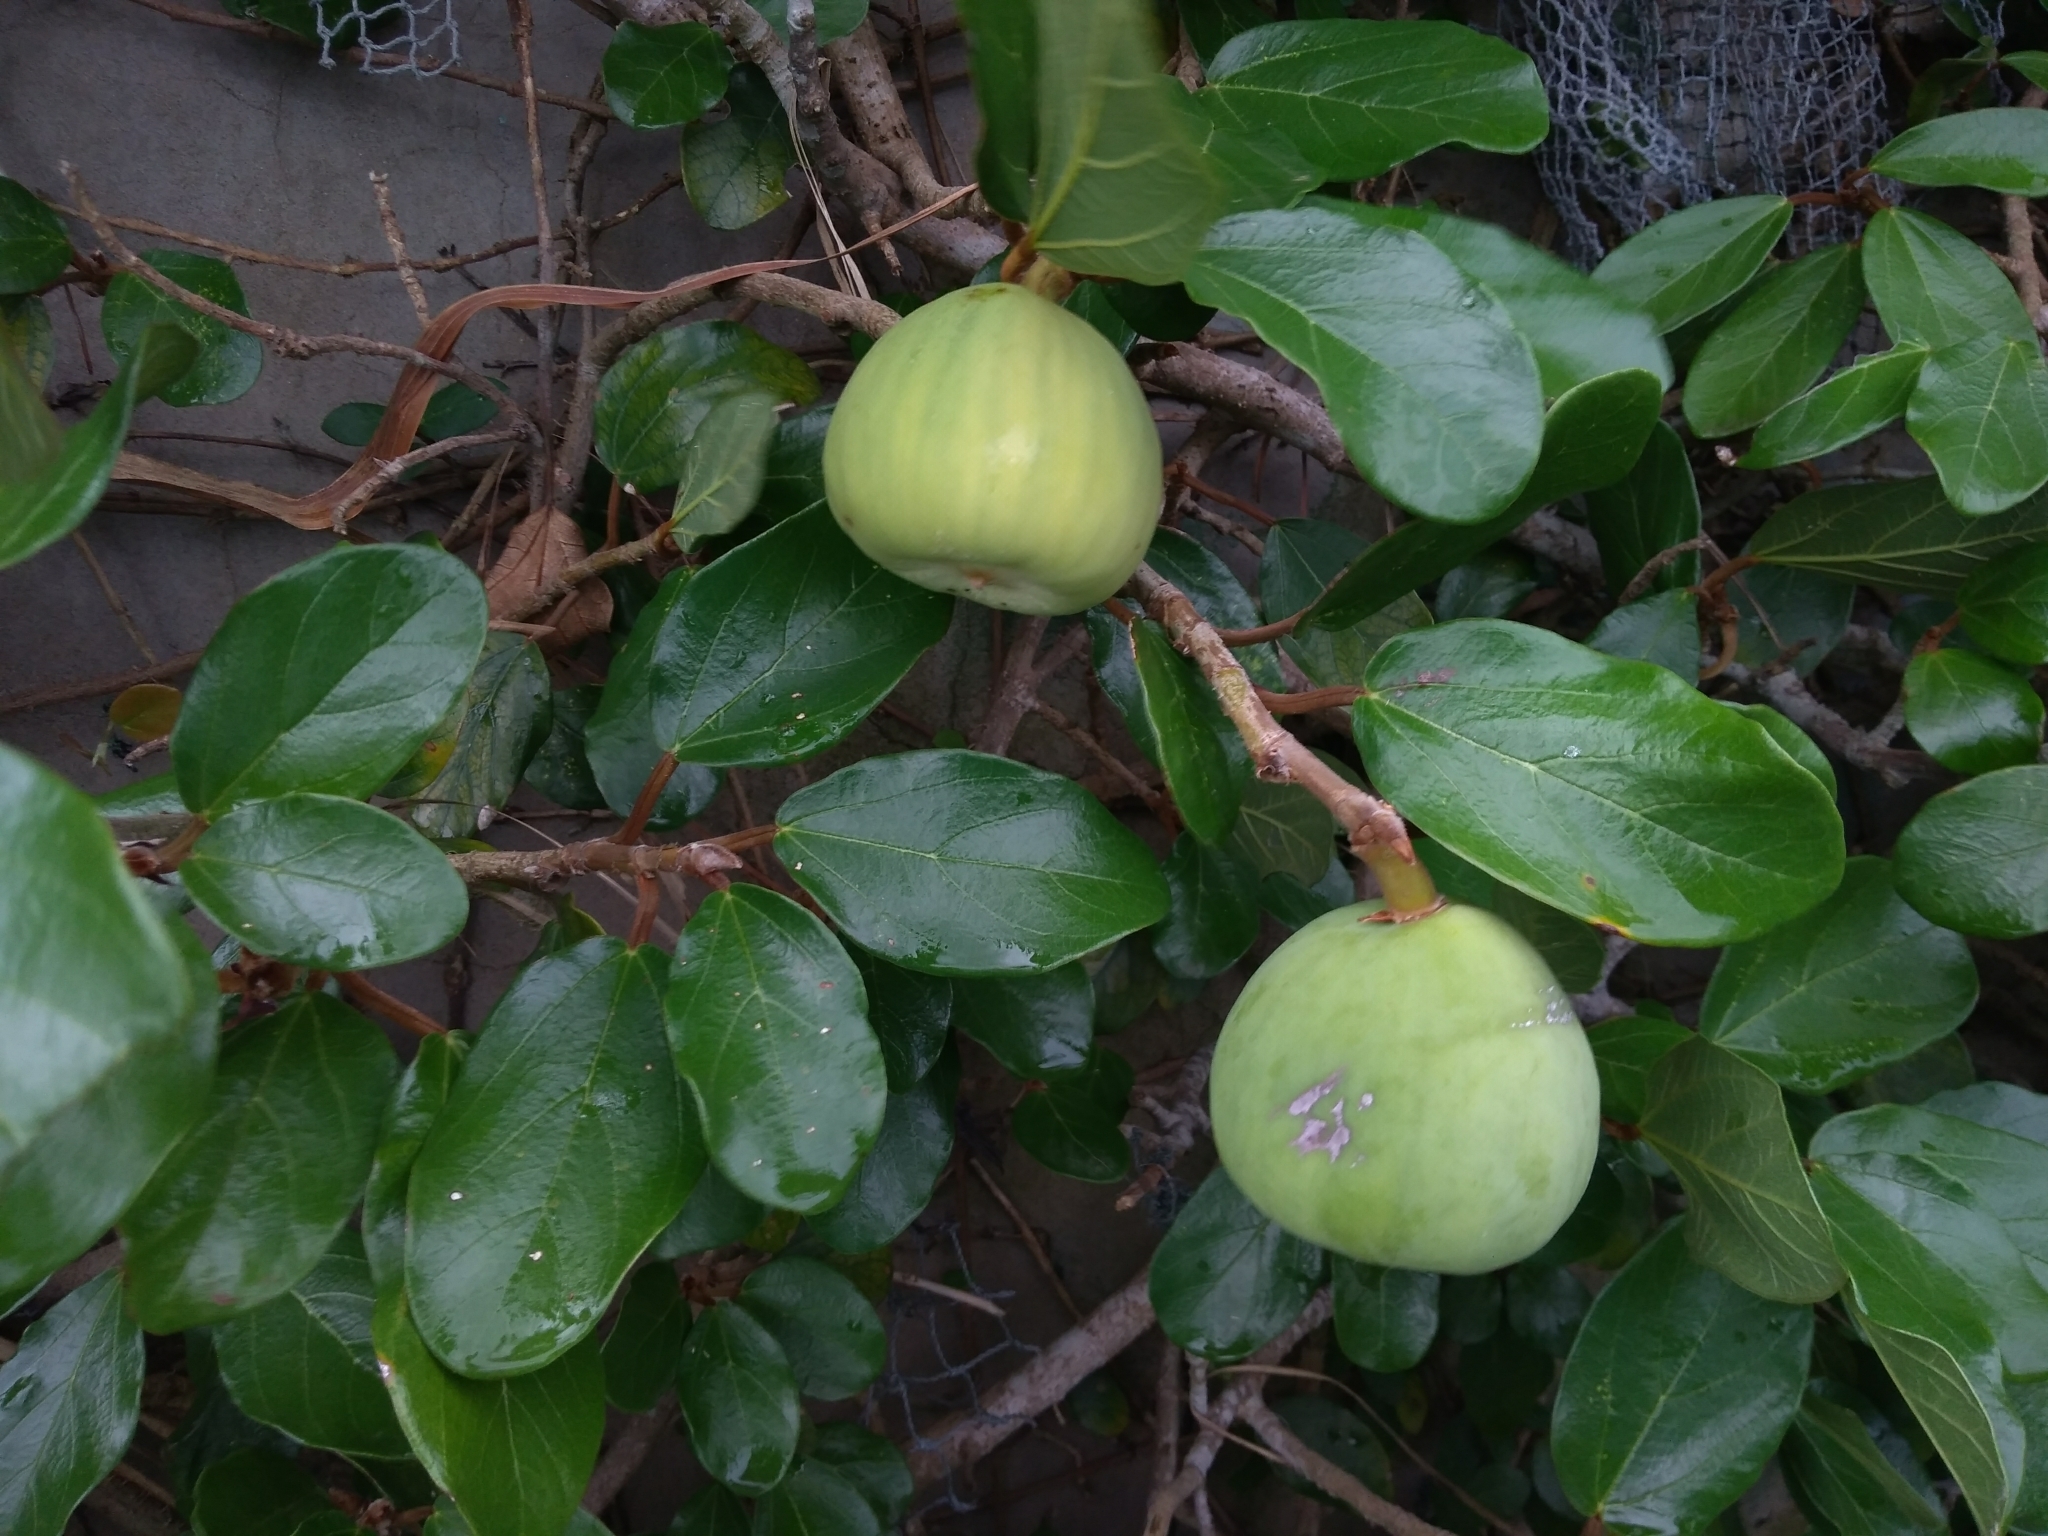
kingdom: Plantae
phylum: Tracheophyta
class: Magnoliopsida
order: Rosales
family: Moraceae
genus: Ficus
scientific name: Ficus pumila
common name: Climbingfig
